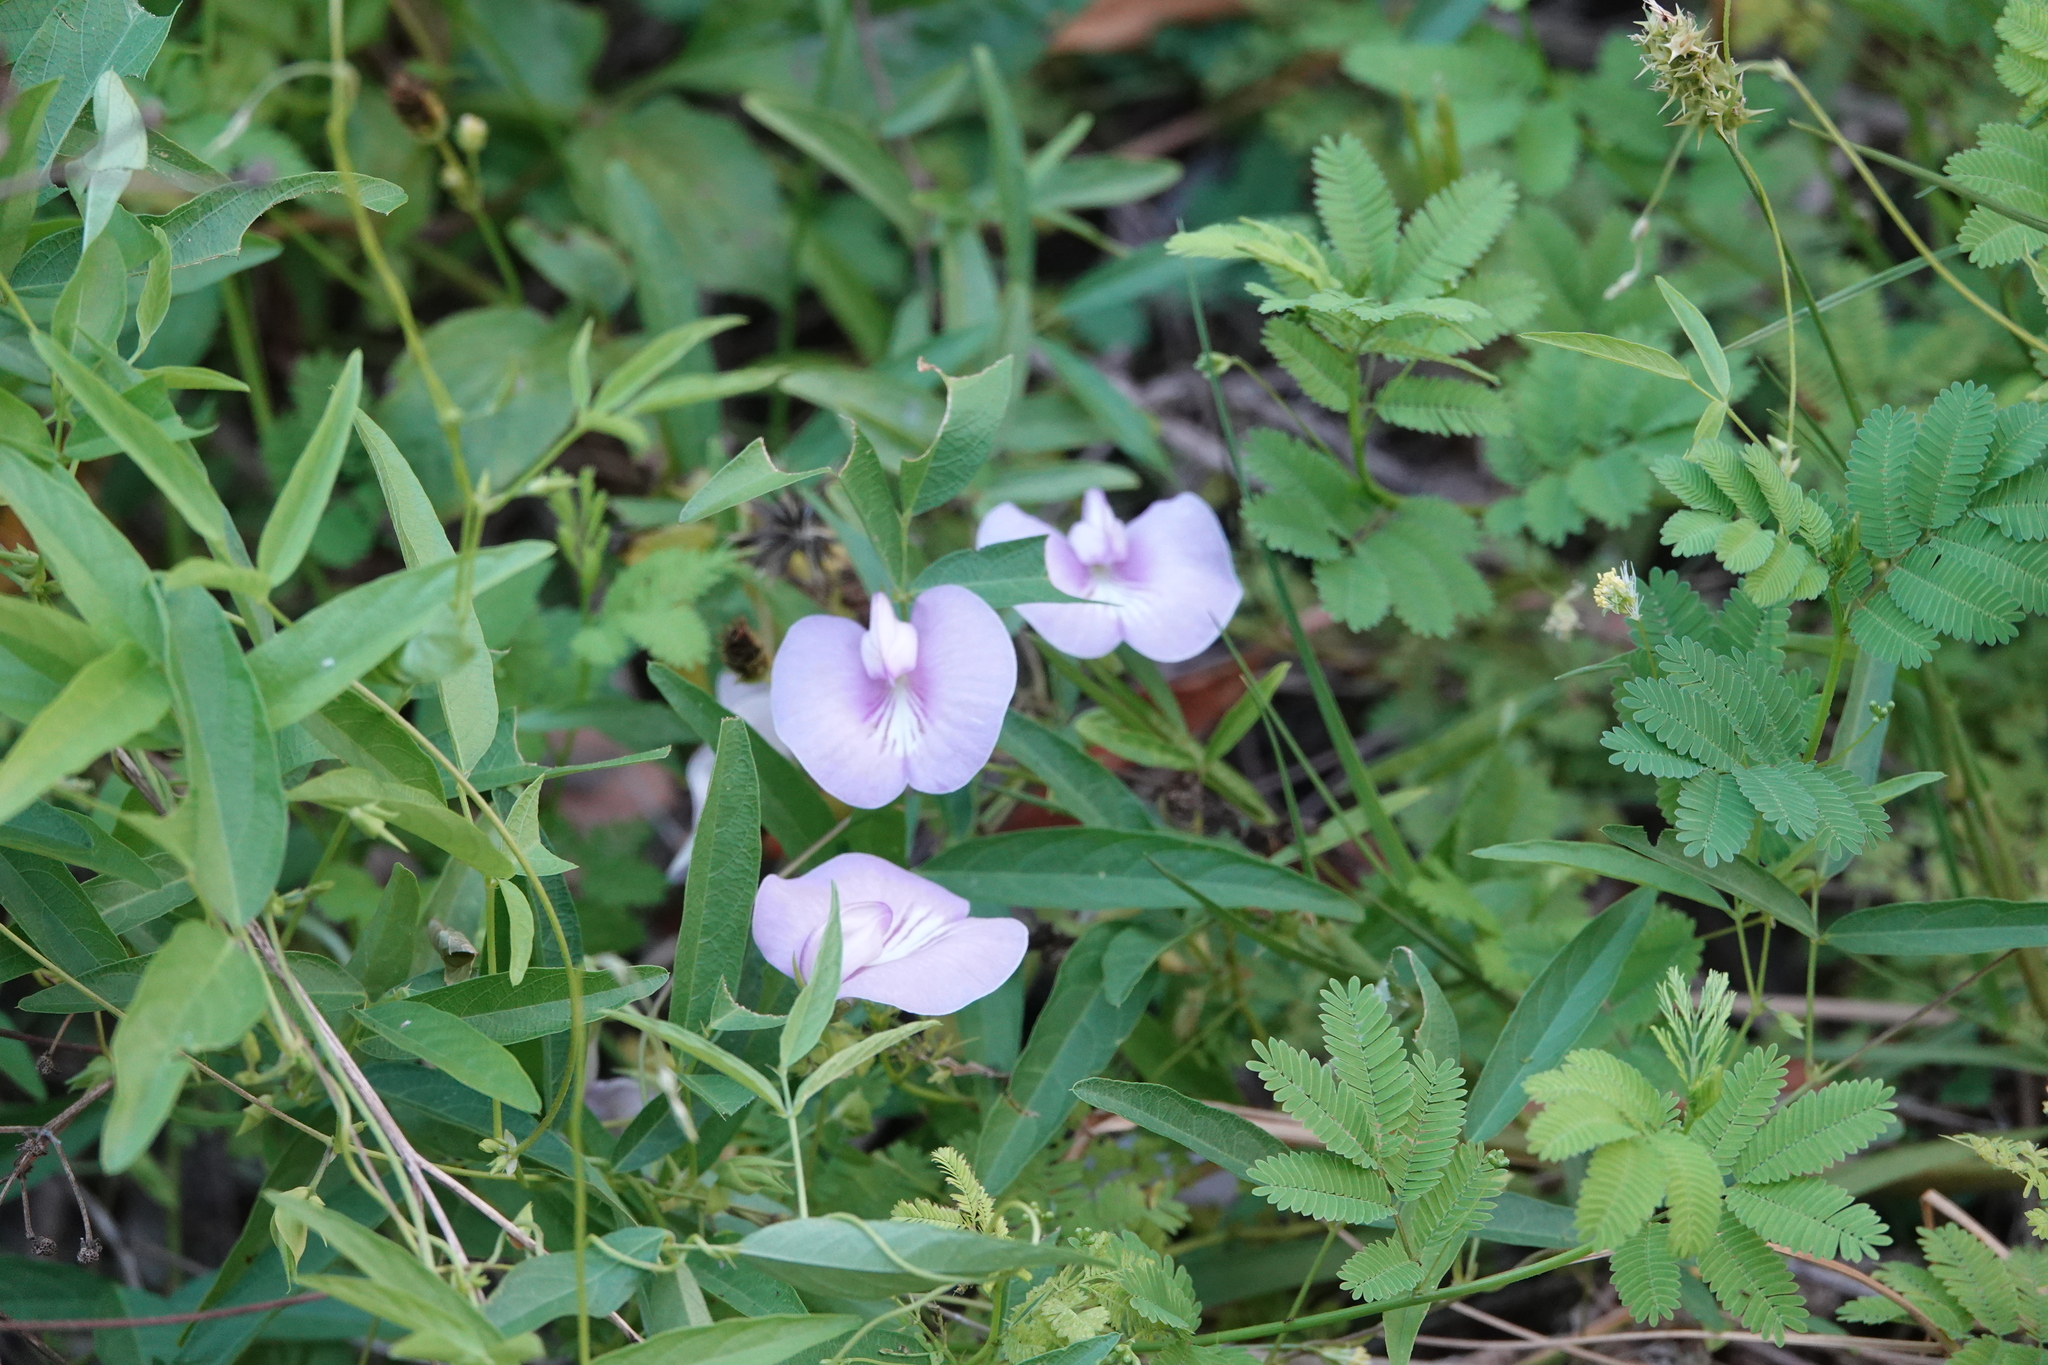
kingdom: Plantae
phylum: Tracheophyta
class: Magnoliopsida
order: Fabales
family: Fabaceae
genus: Centrosema
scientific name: Centrosema virginianum
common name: Butterfly-pea
